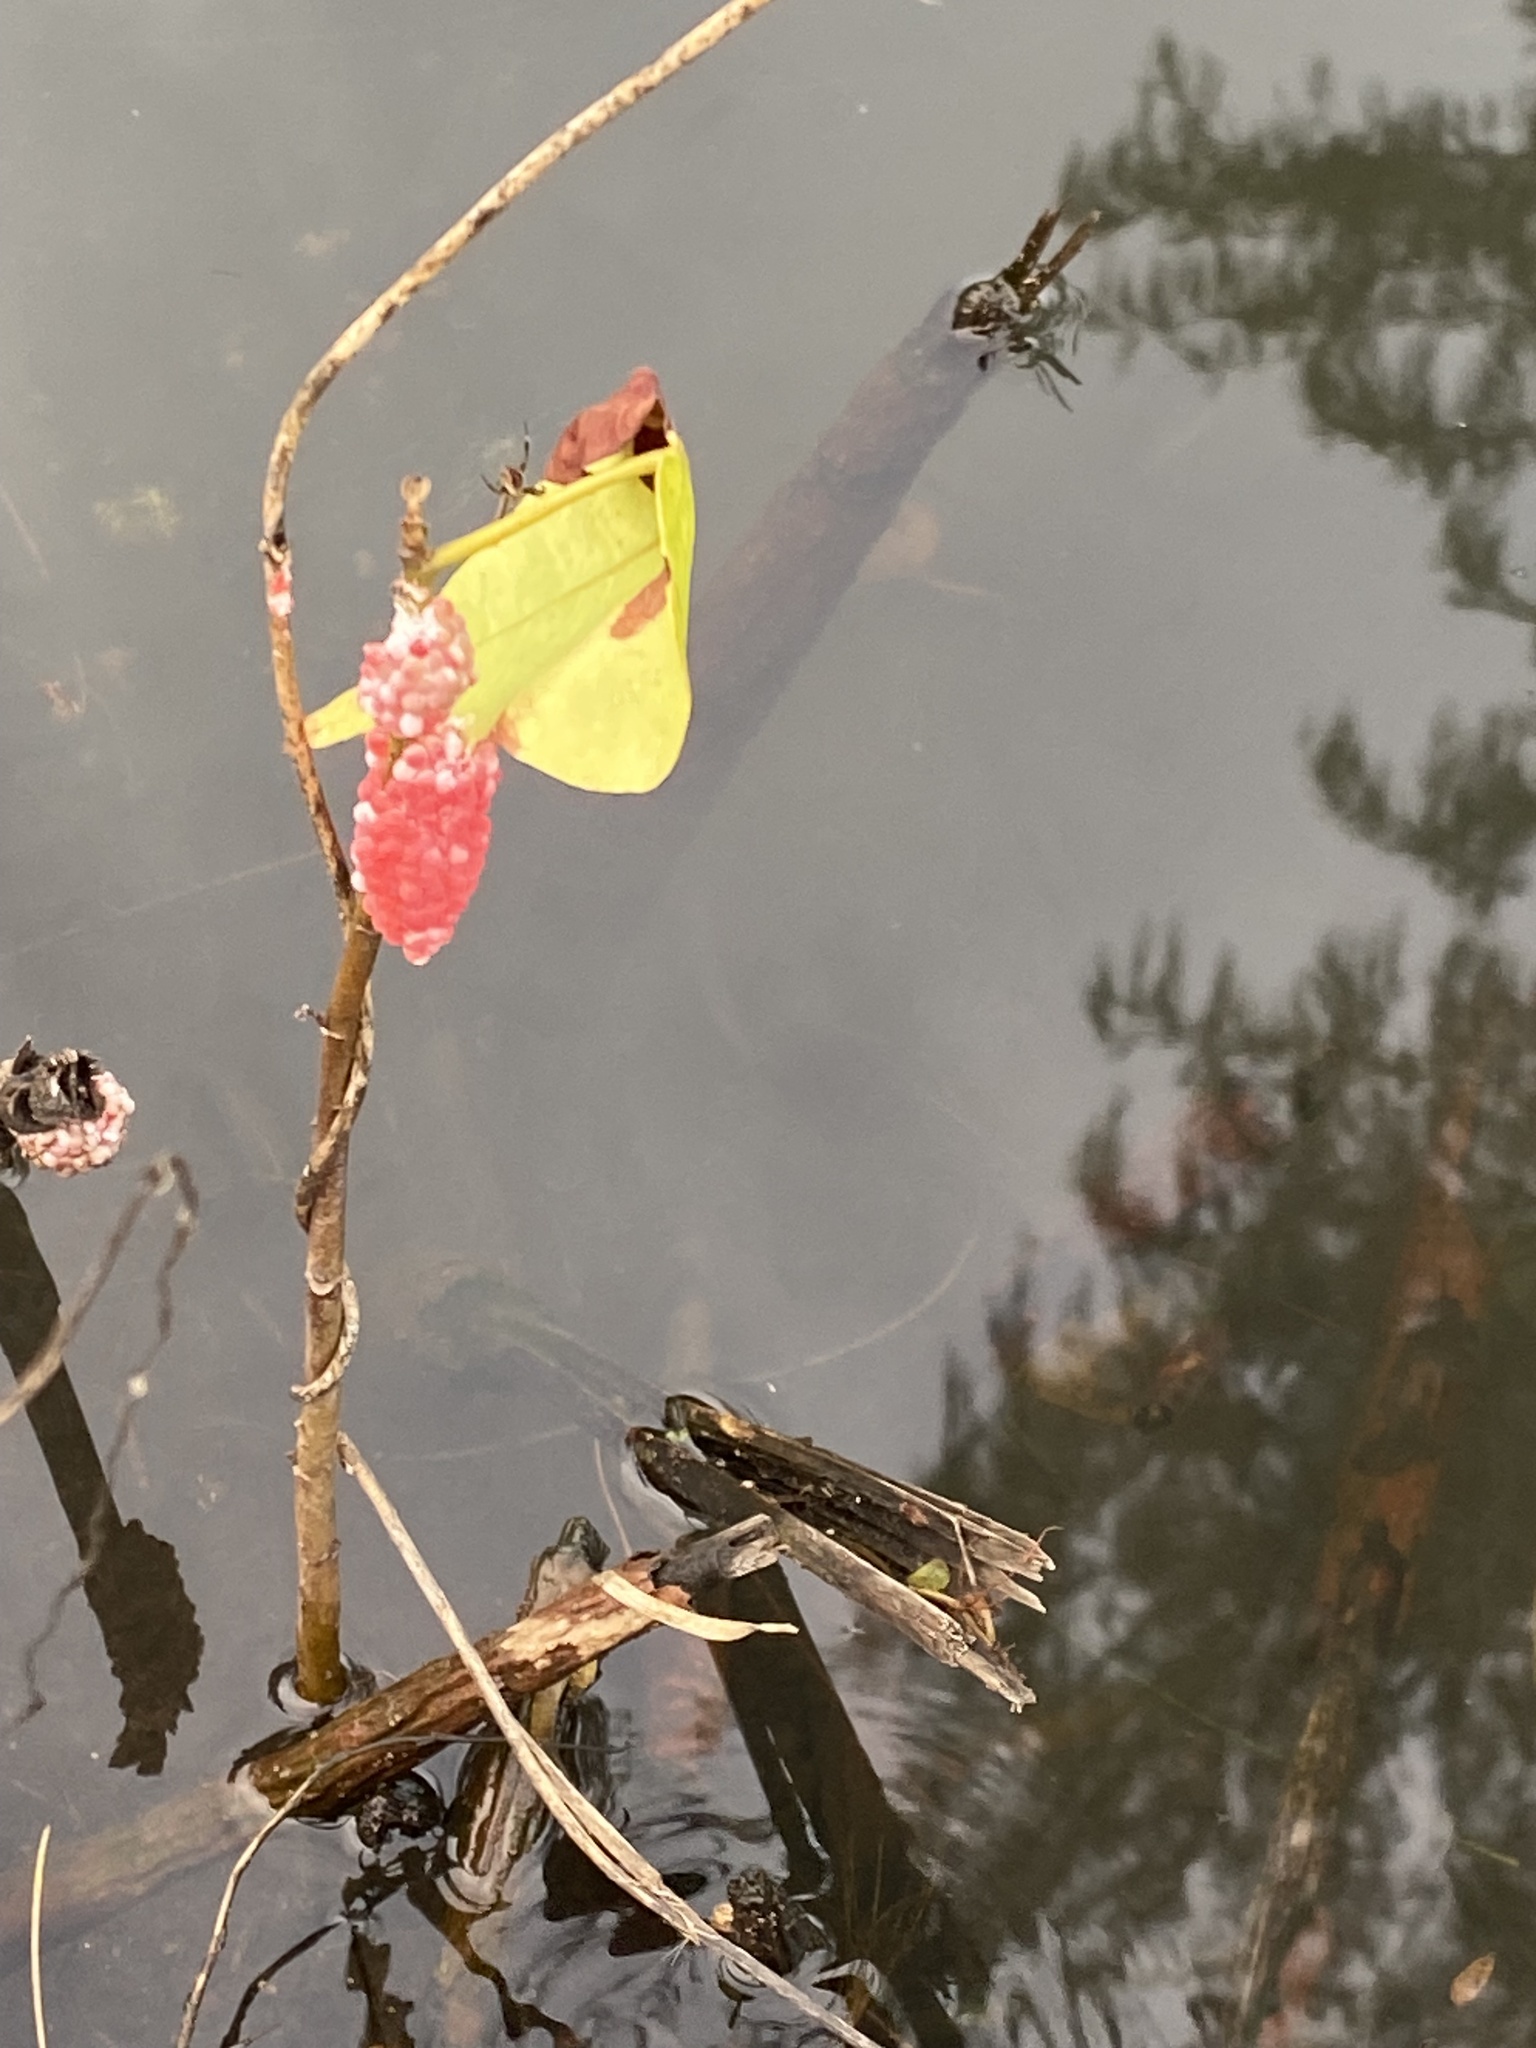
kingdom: Animalia
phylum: Mollusca
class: Gastropoda
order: Architaenioglossa
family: Ampullariidae
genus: Pomacea
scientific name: Pomacea canaliculata
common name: Channeled applesnail
